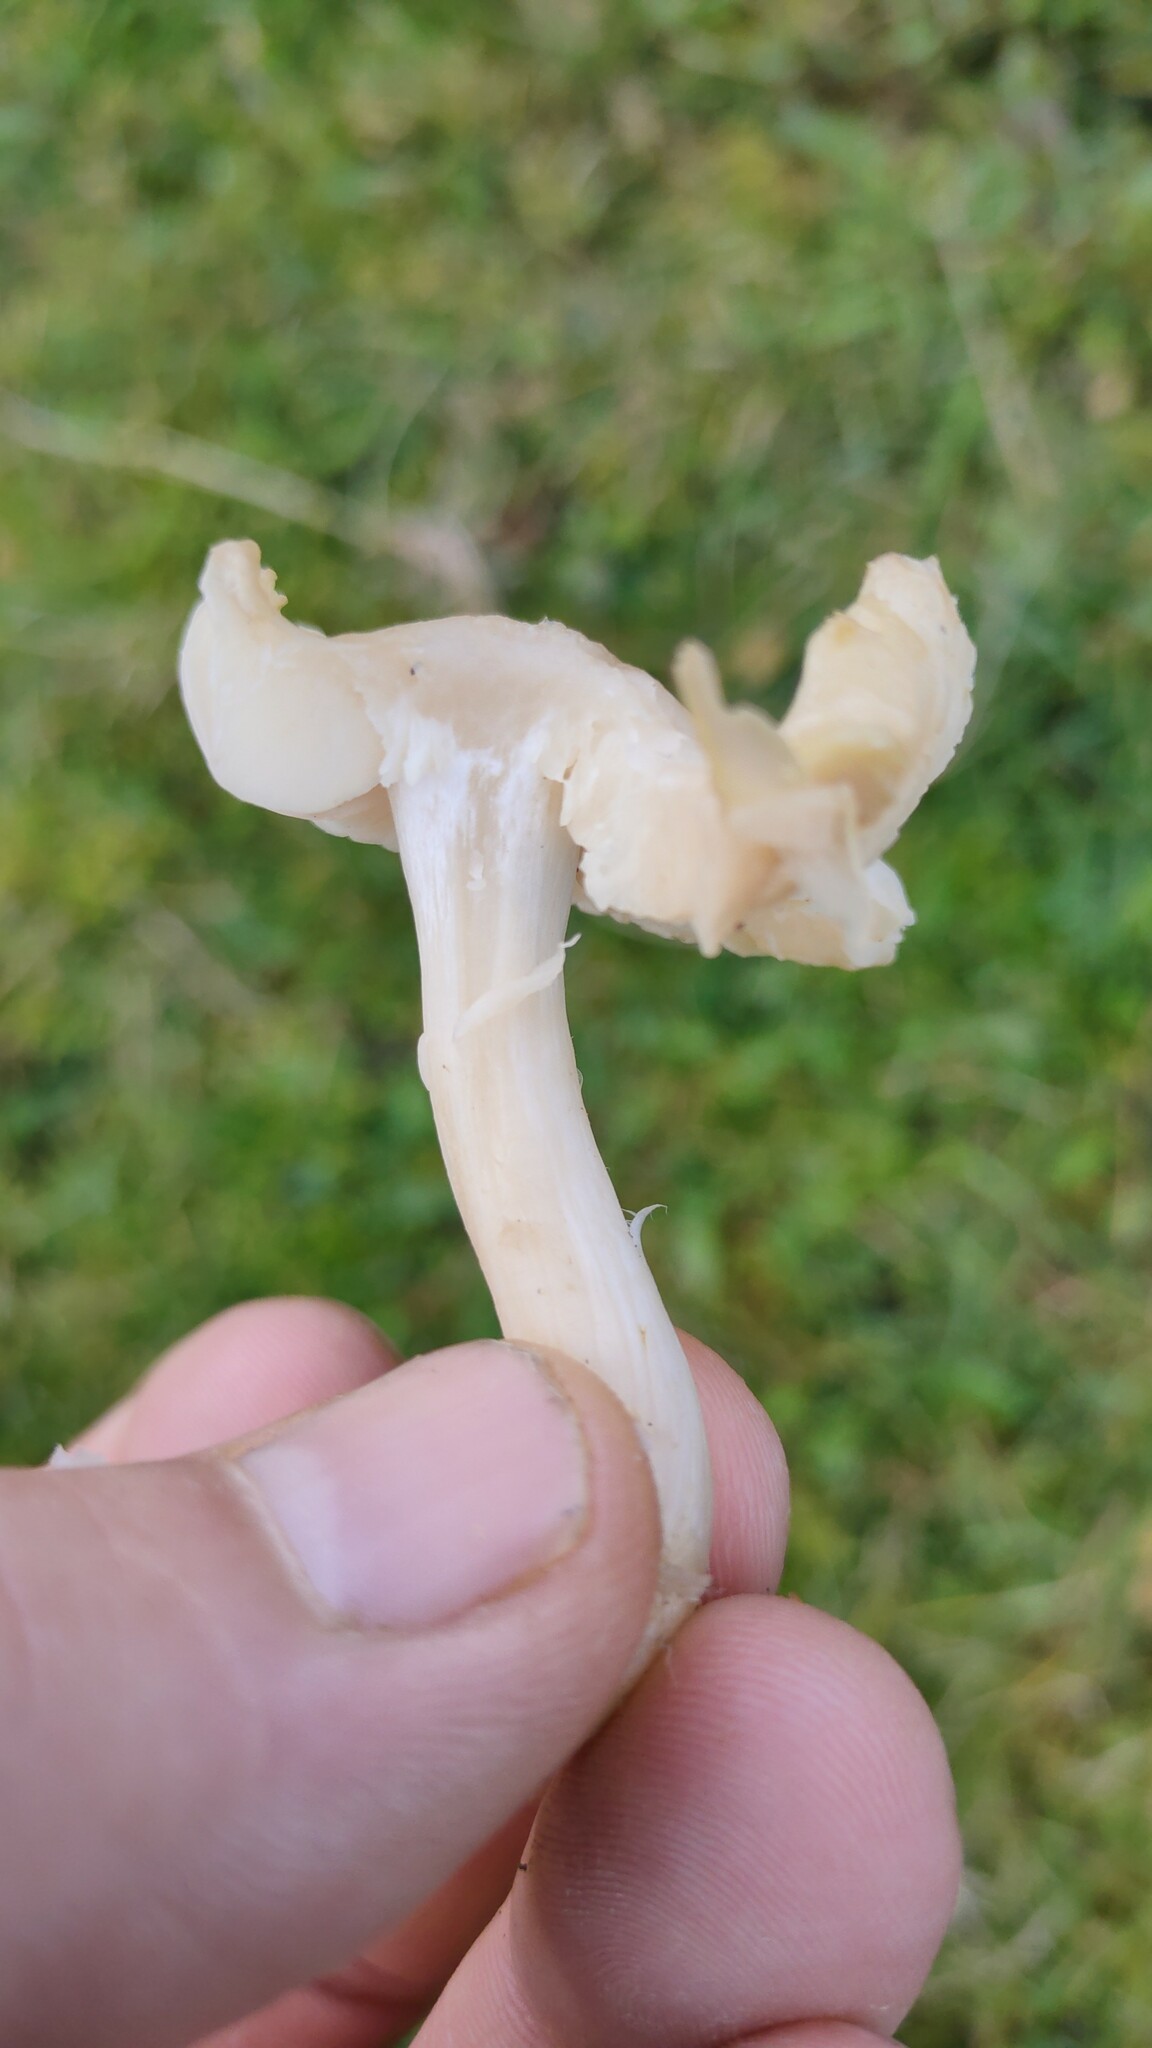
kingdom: Fungi
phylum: Basidiomycota
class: Agaricomycetes
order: Agaricales
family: Hygrophoraceae
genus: Cuphophyllus
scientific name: Cuphophyllus fornicatus
